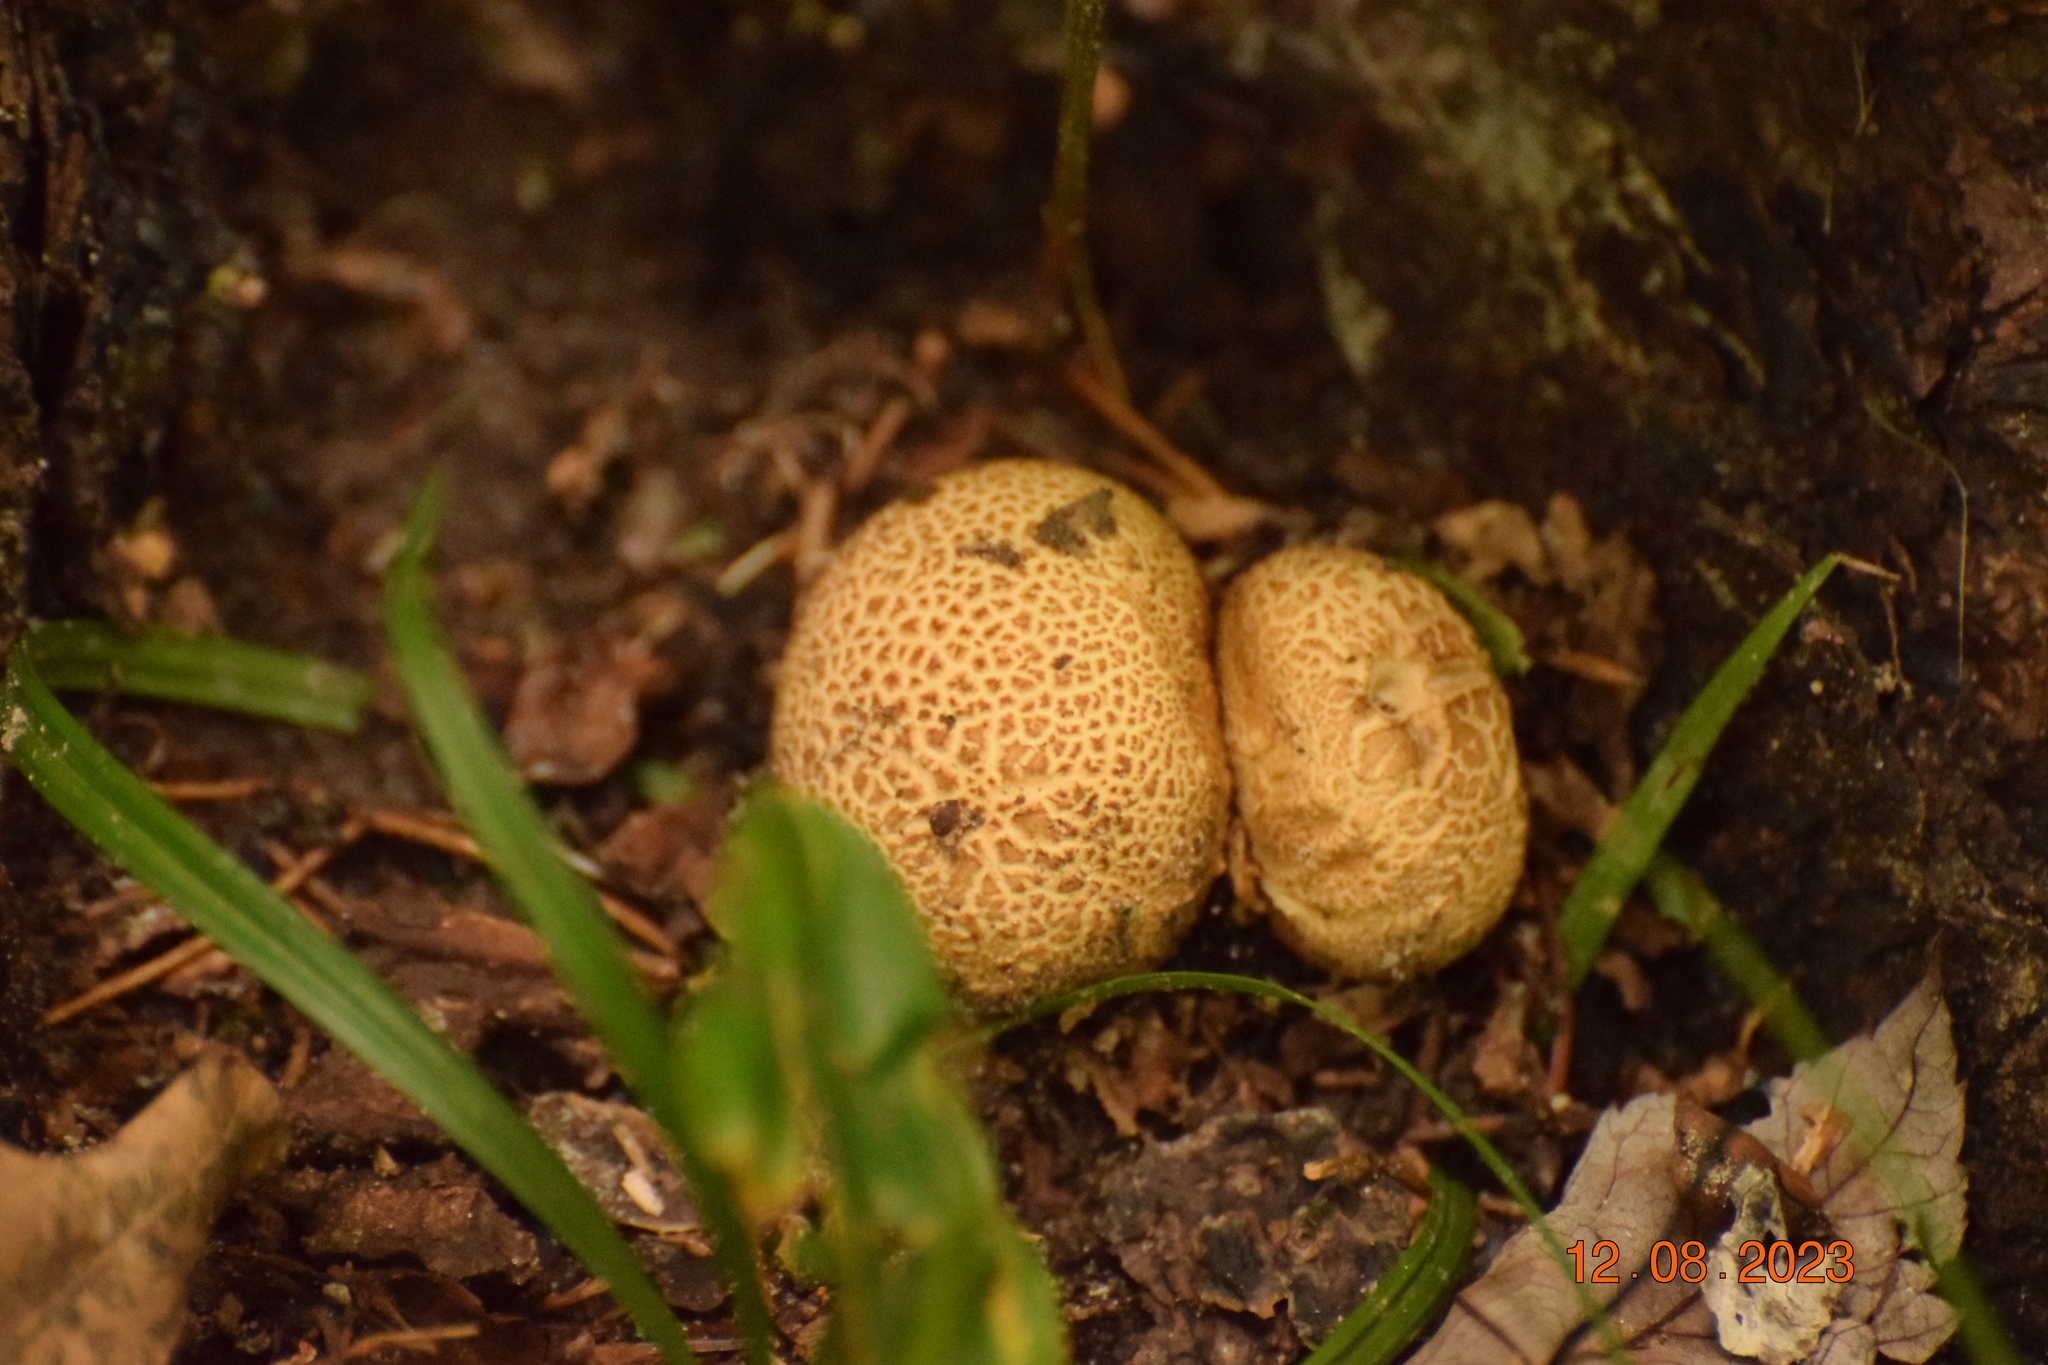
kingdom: Fungi
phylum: Basidiomycota
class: Agaricomycetes
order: Boletales
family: Sclerodermataceae
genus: Scleroderma
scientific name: Scleroderma citrinum
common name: Common earthball
